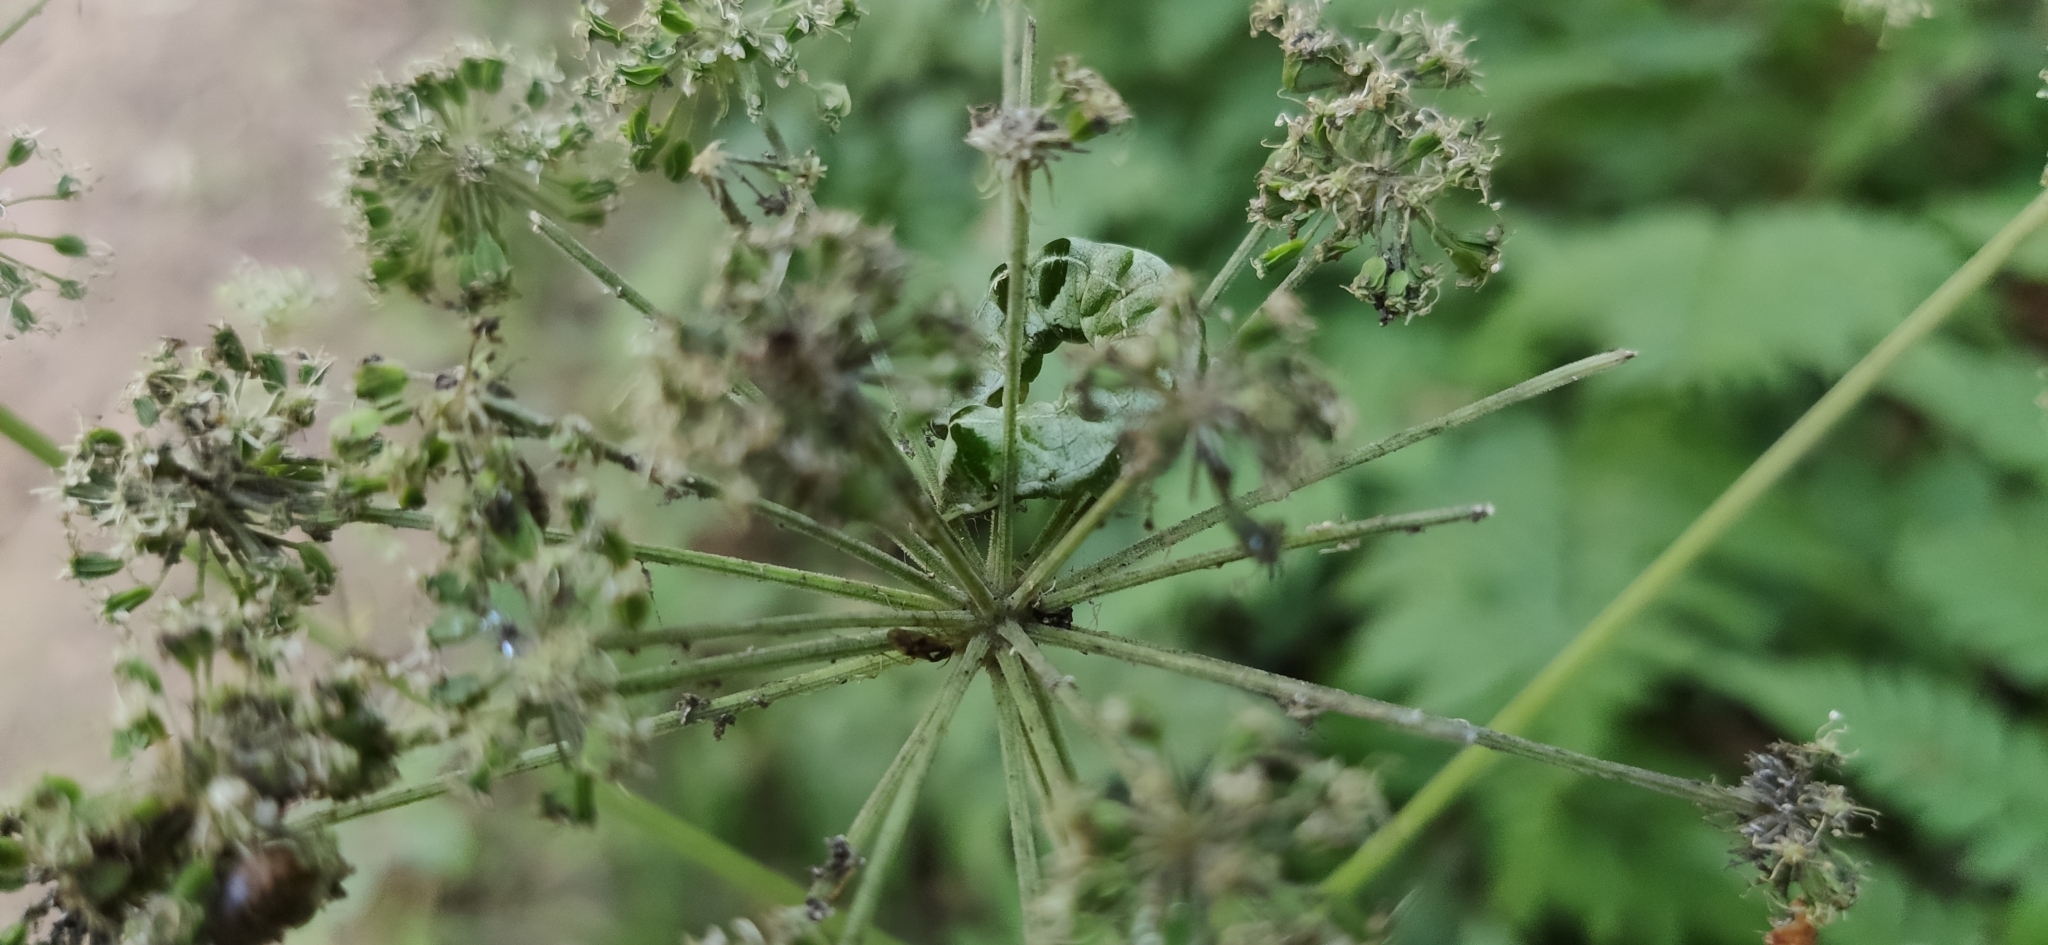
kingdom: Animalia
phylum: Arthropoda
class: Insecta
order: Lepidoptera
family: Noctuidae
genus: Melanchra
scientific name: Melanchra persicariae
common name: Dot moth
